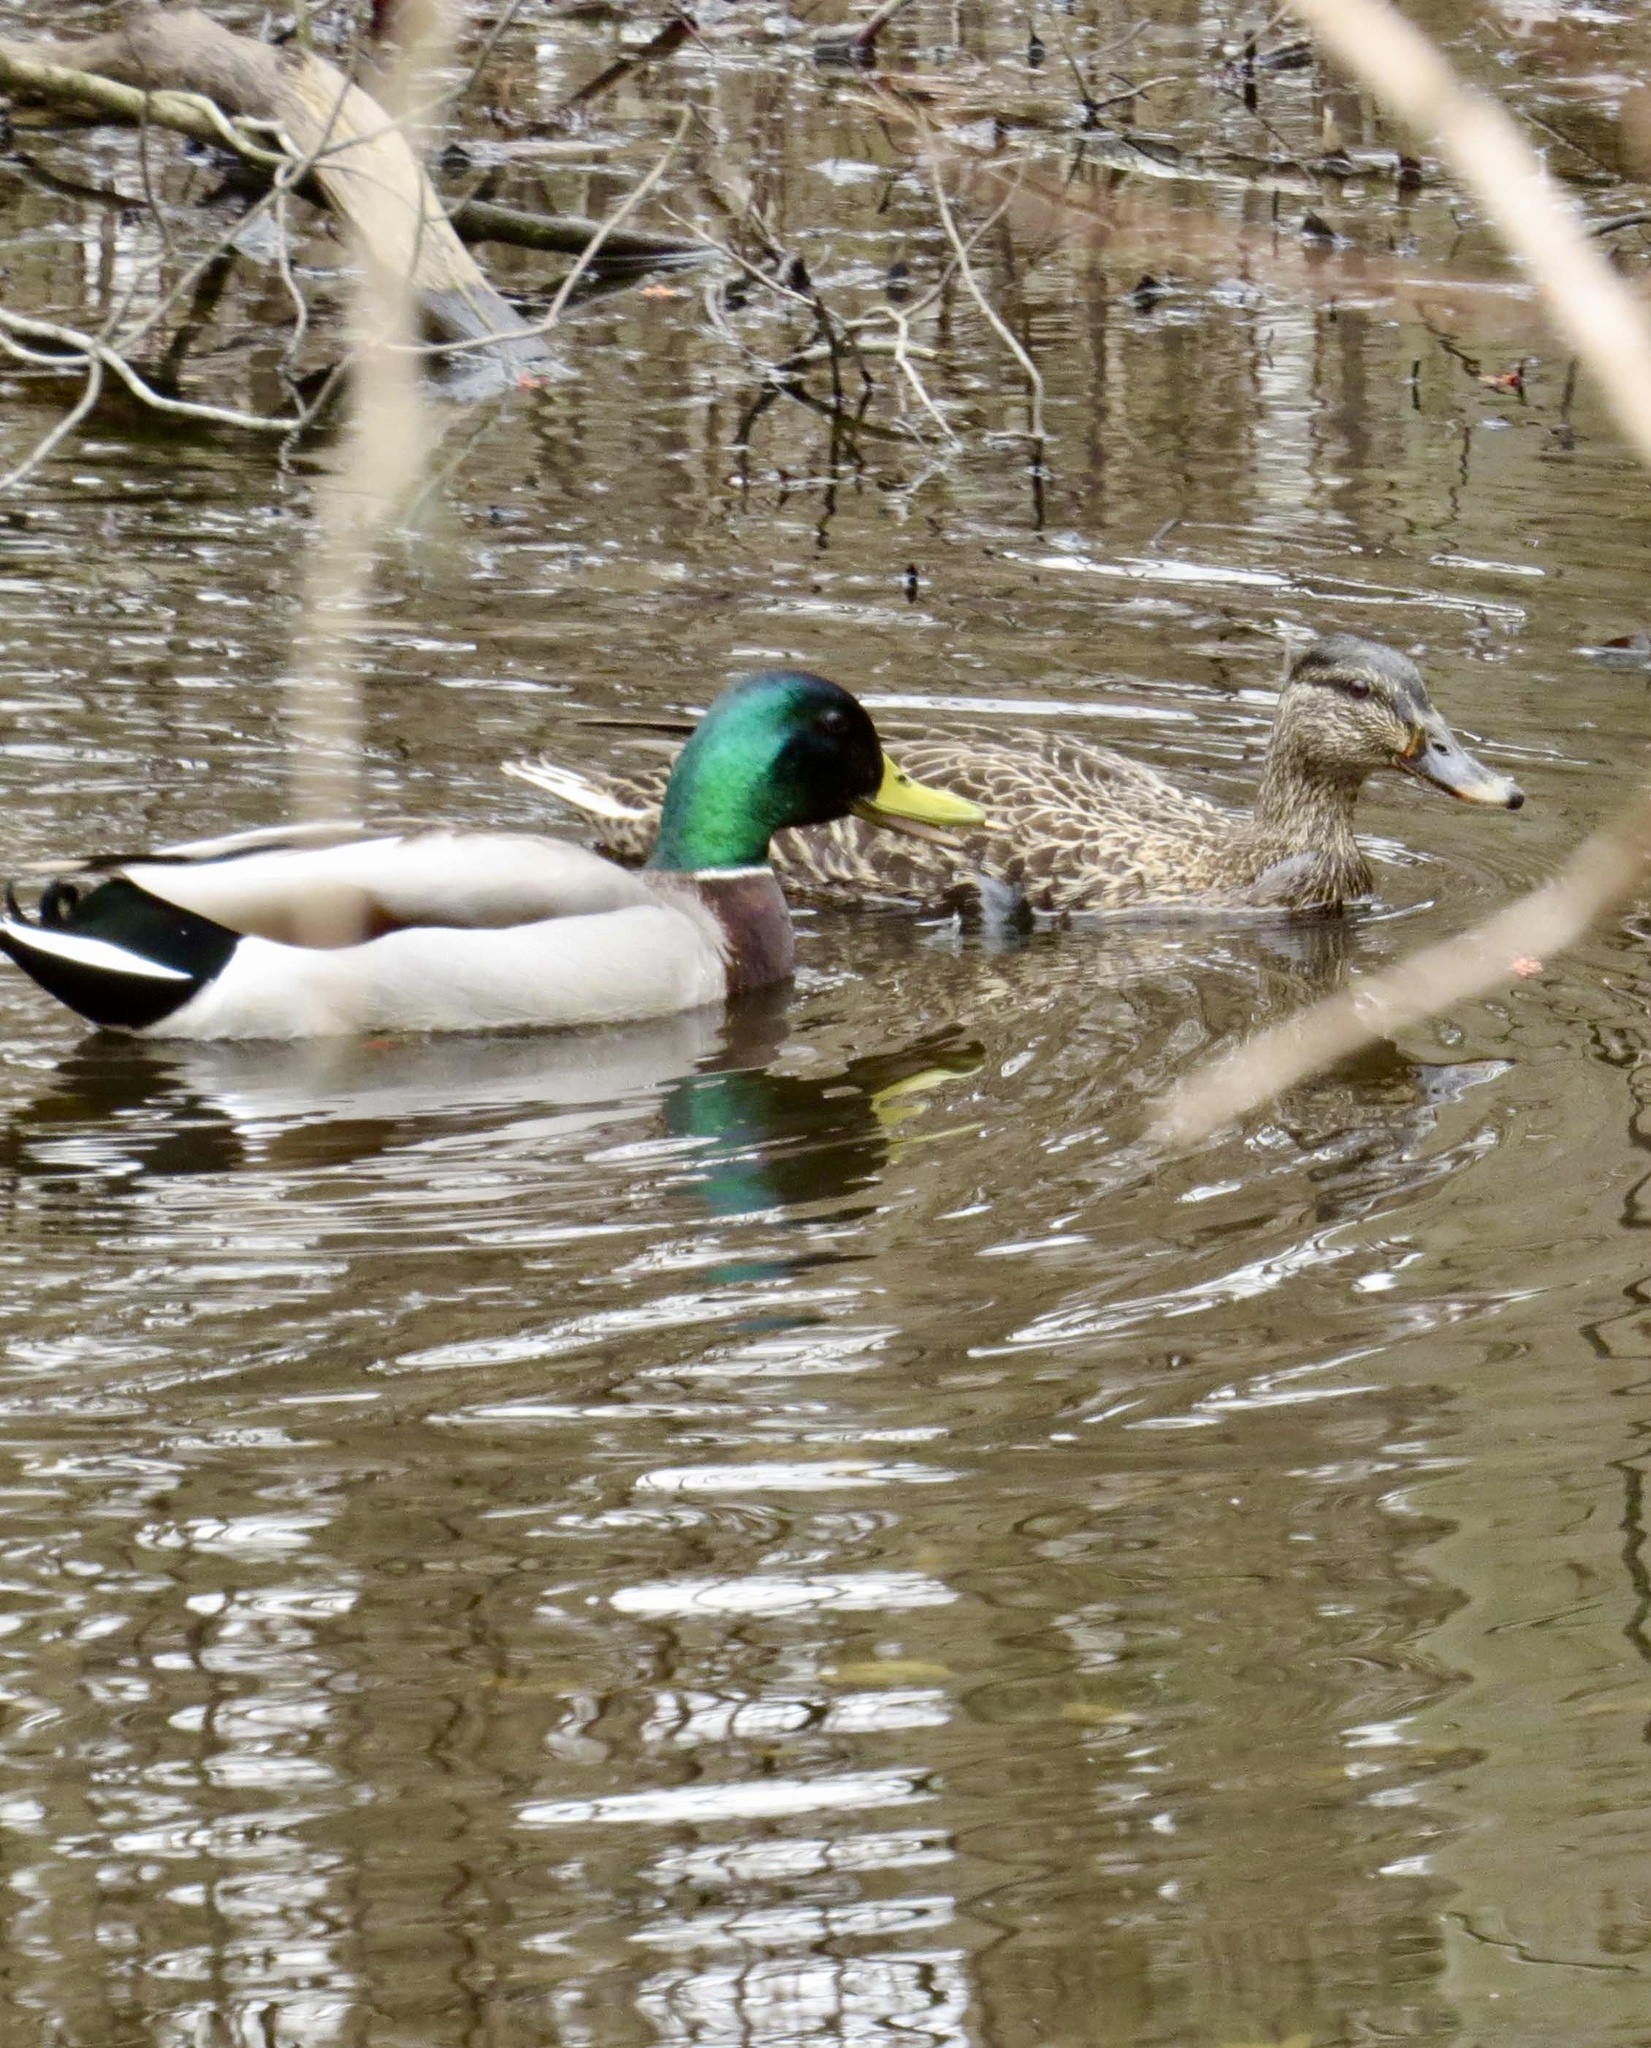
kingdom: Animalia
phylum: Chordata
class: Aves
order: Anseriformes
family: Anatidae
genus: Anas
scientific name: Anas platyrhynchos
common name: Mallard
